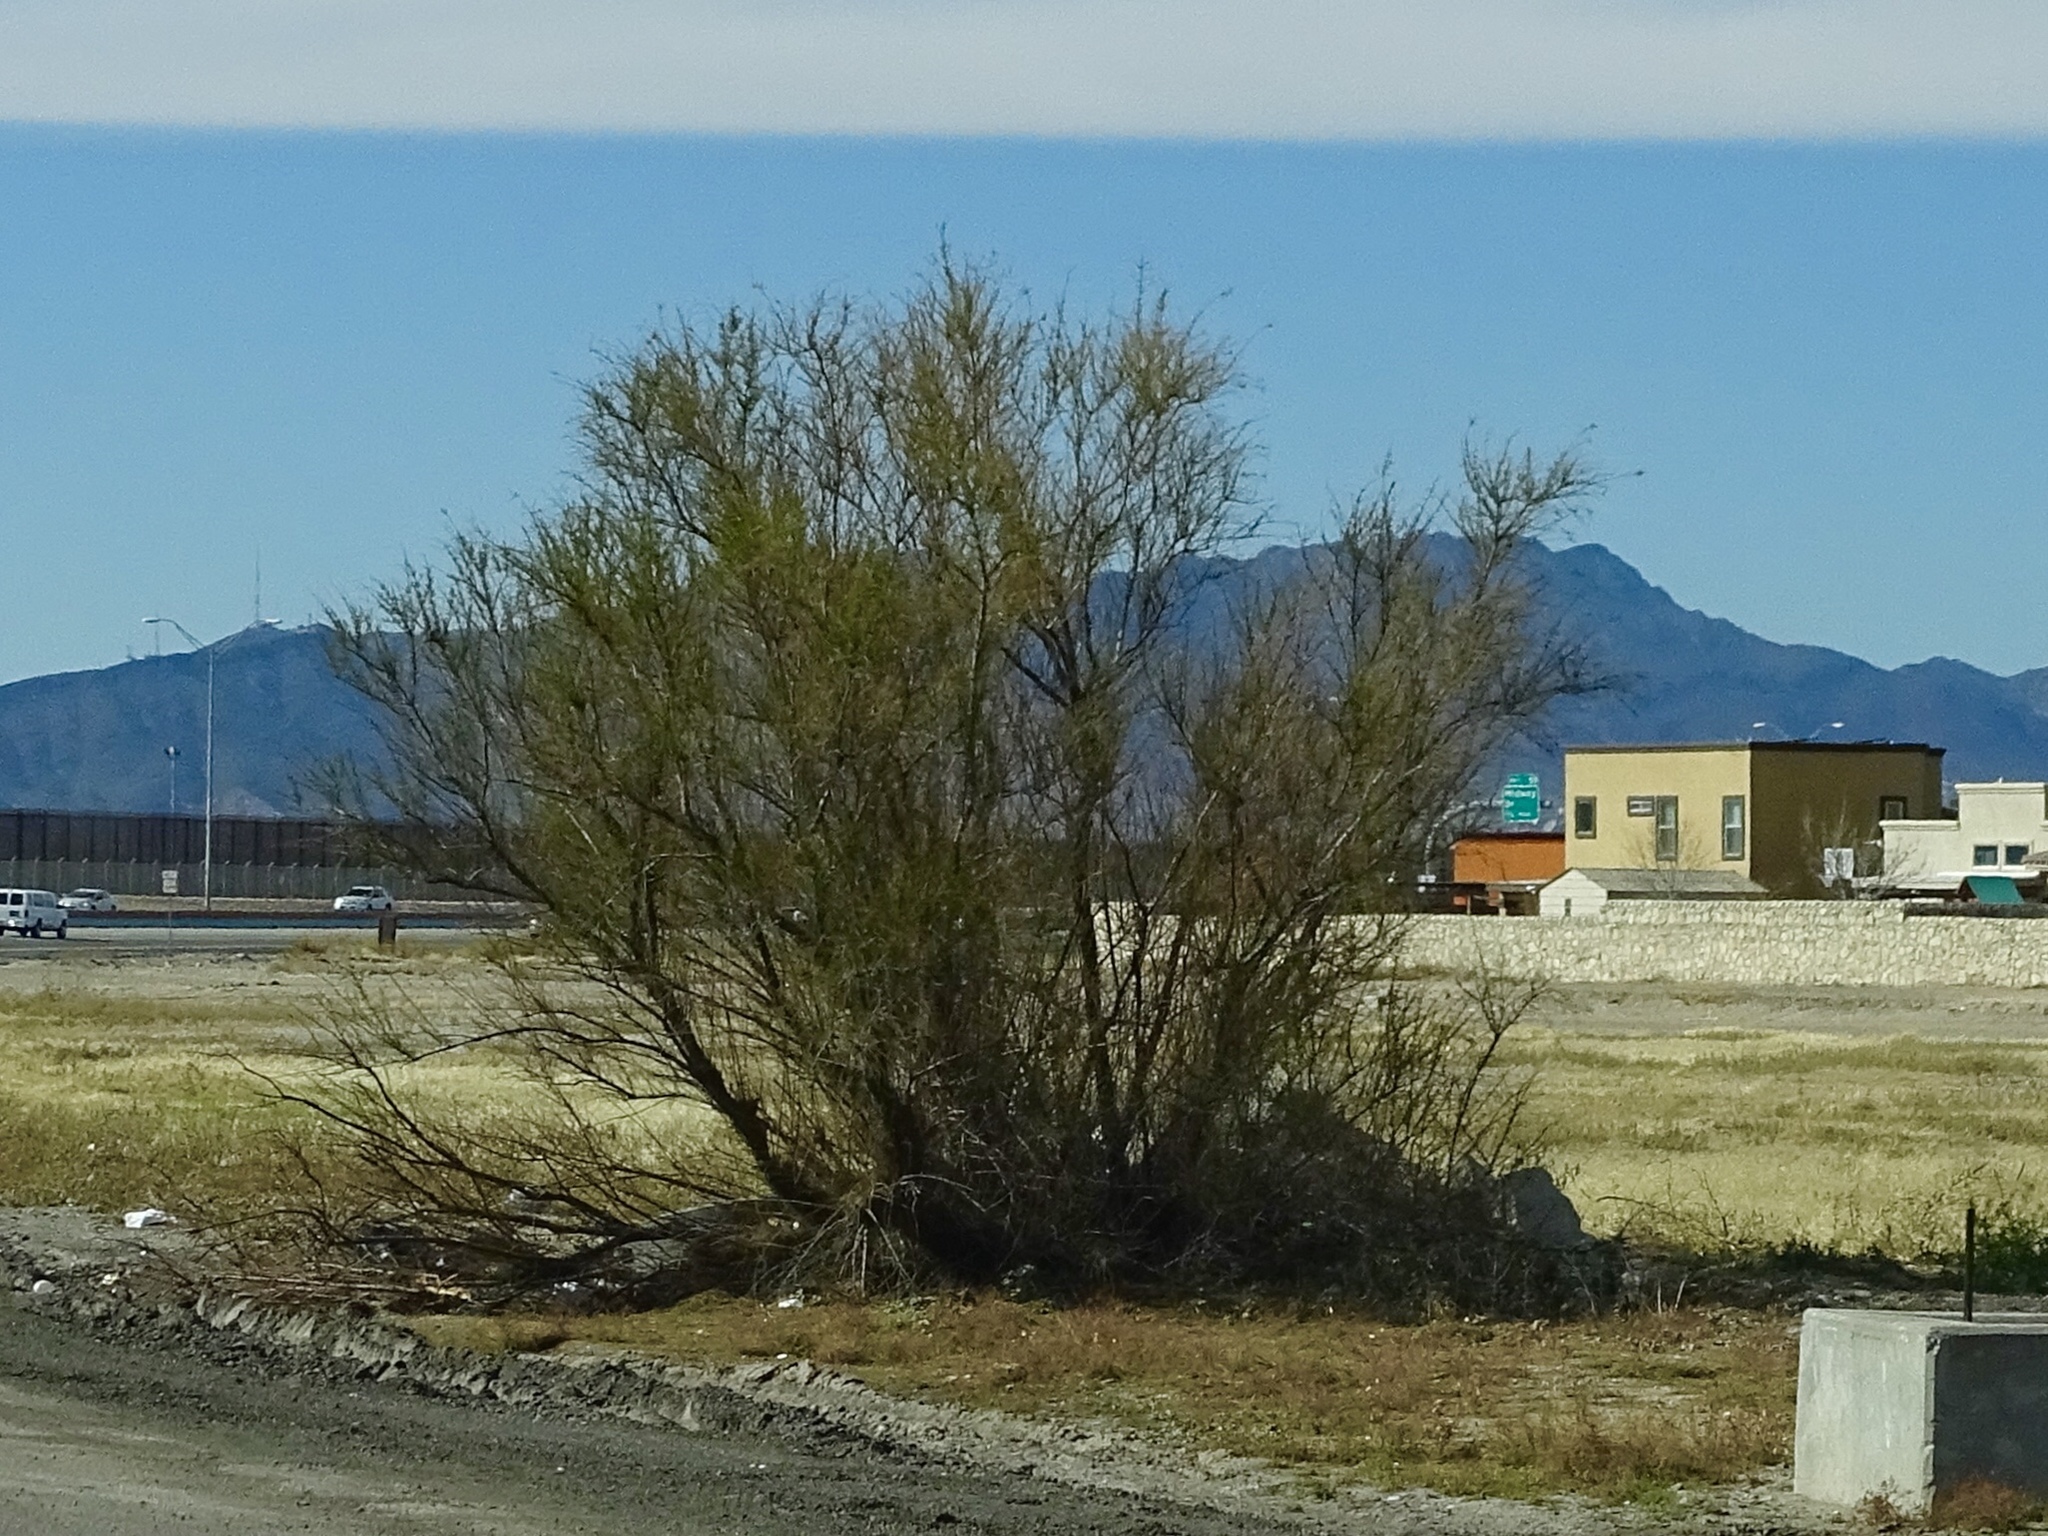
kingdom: Plantae
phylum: Tracheophyta
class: Magnoliopsida
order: Fabales
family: Fabaceae
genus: Parkinsonia
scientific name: Parkinsonia aculeata
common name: Jerusalem thorn
